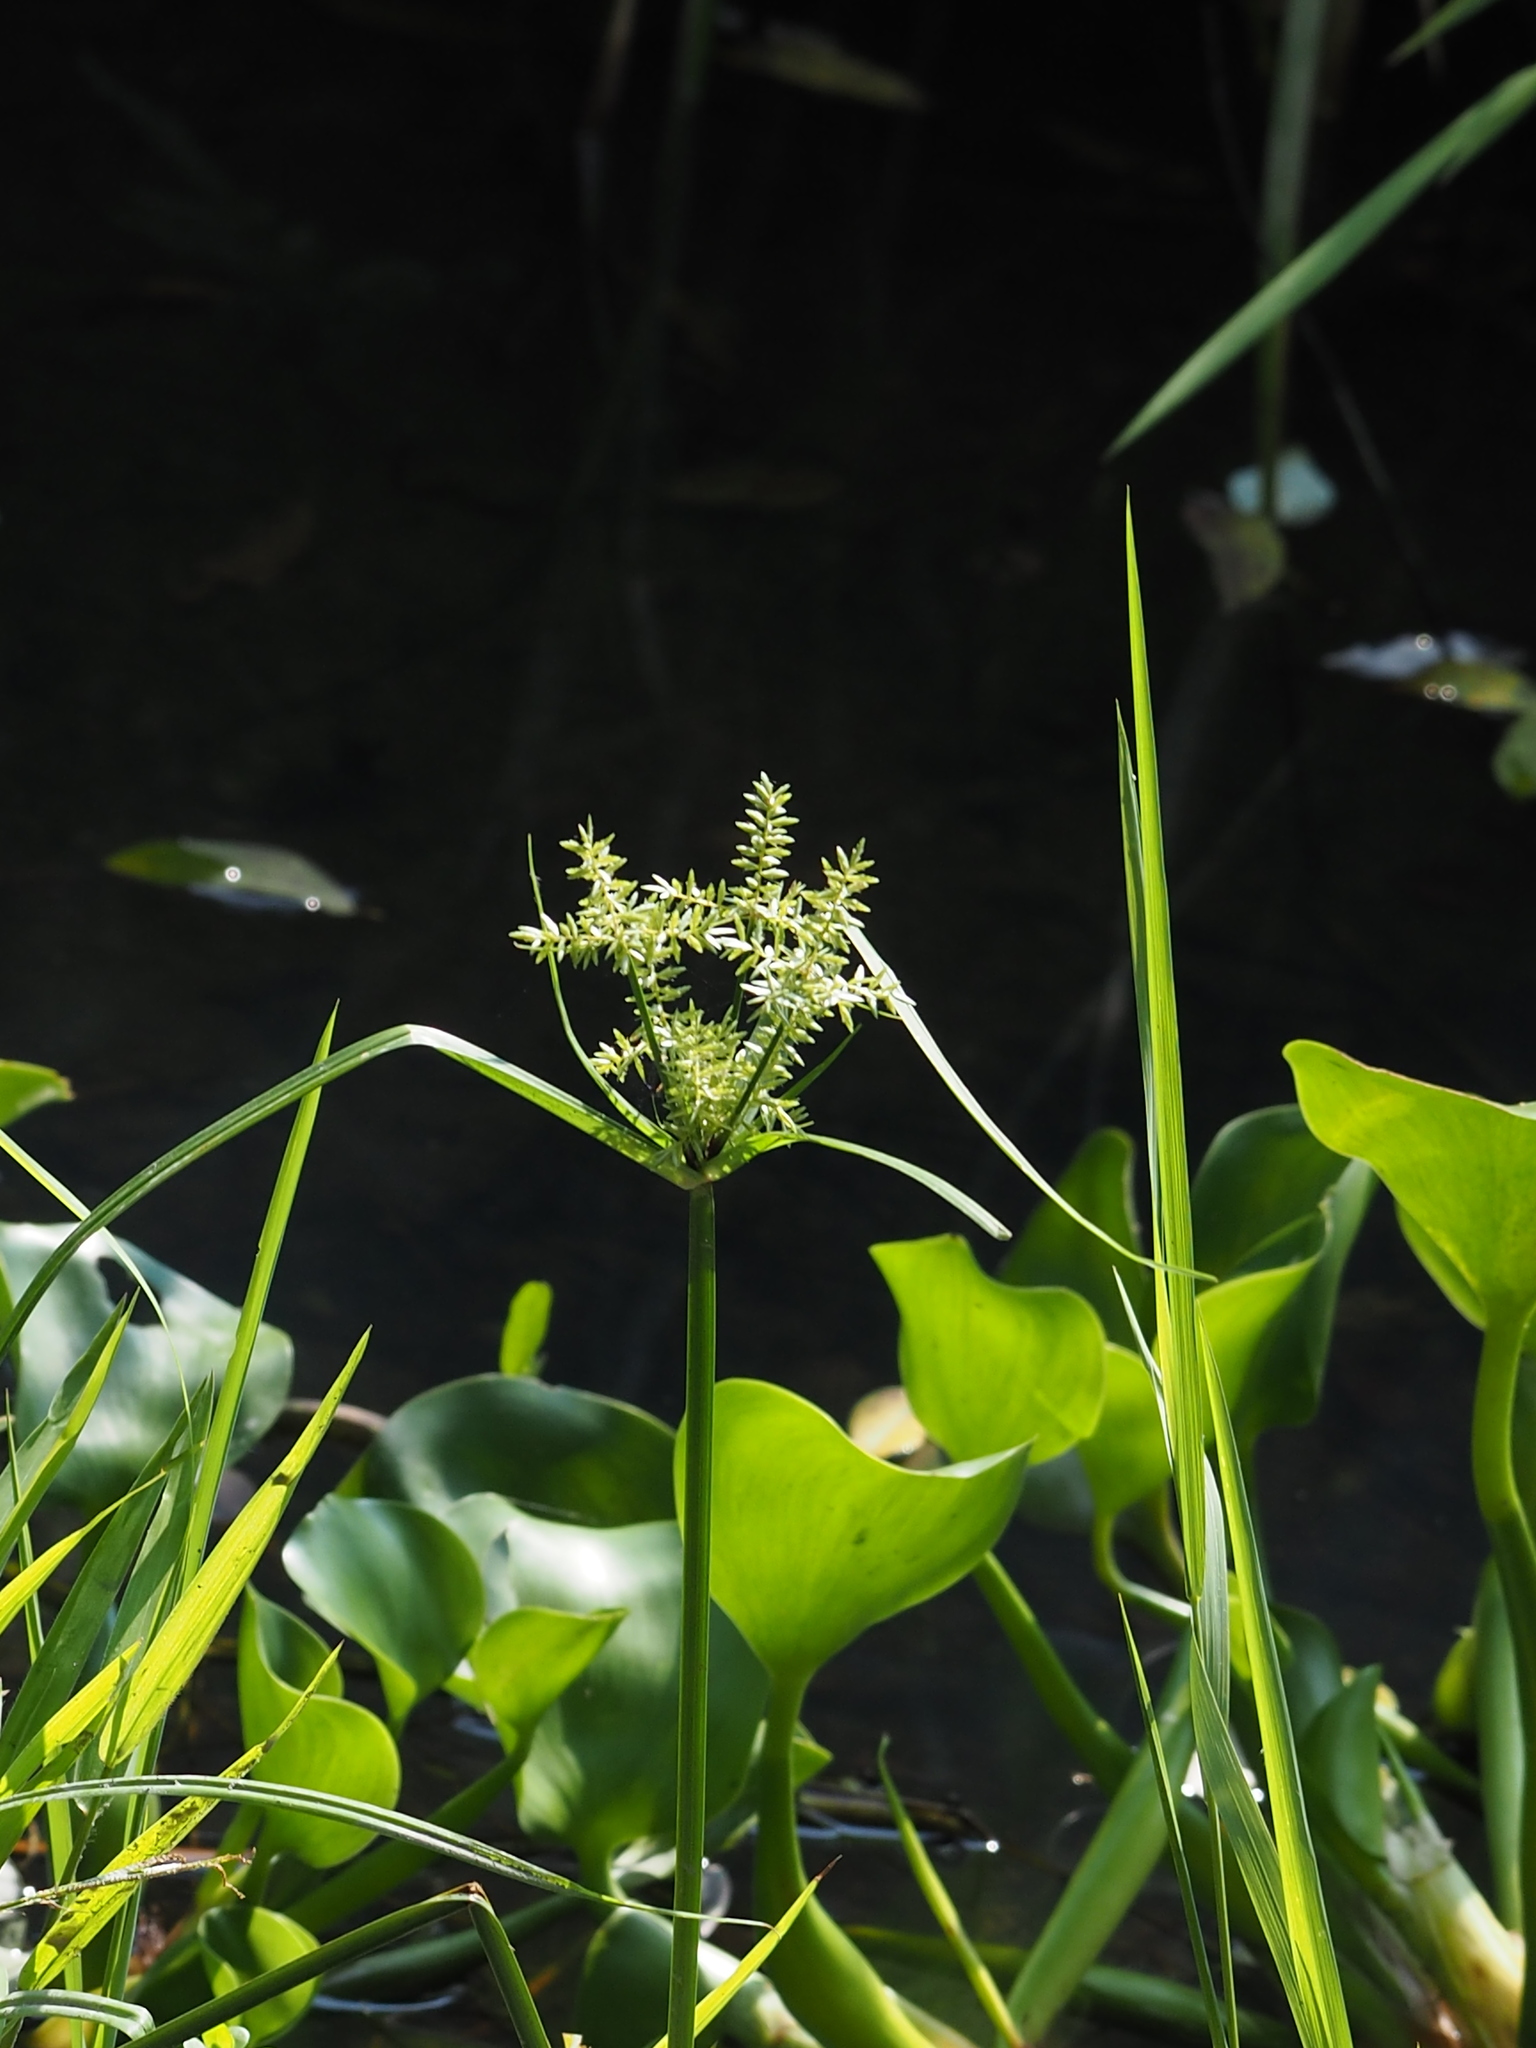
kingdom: Plantae
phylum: Tracheophyta
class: Liliopsida
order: Poales
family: Cyperaceae
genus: Cyperus
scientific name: Cyperus pilosus
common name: Fuzzy flatsedge
